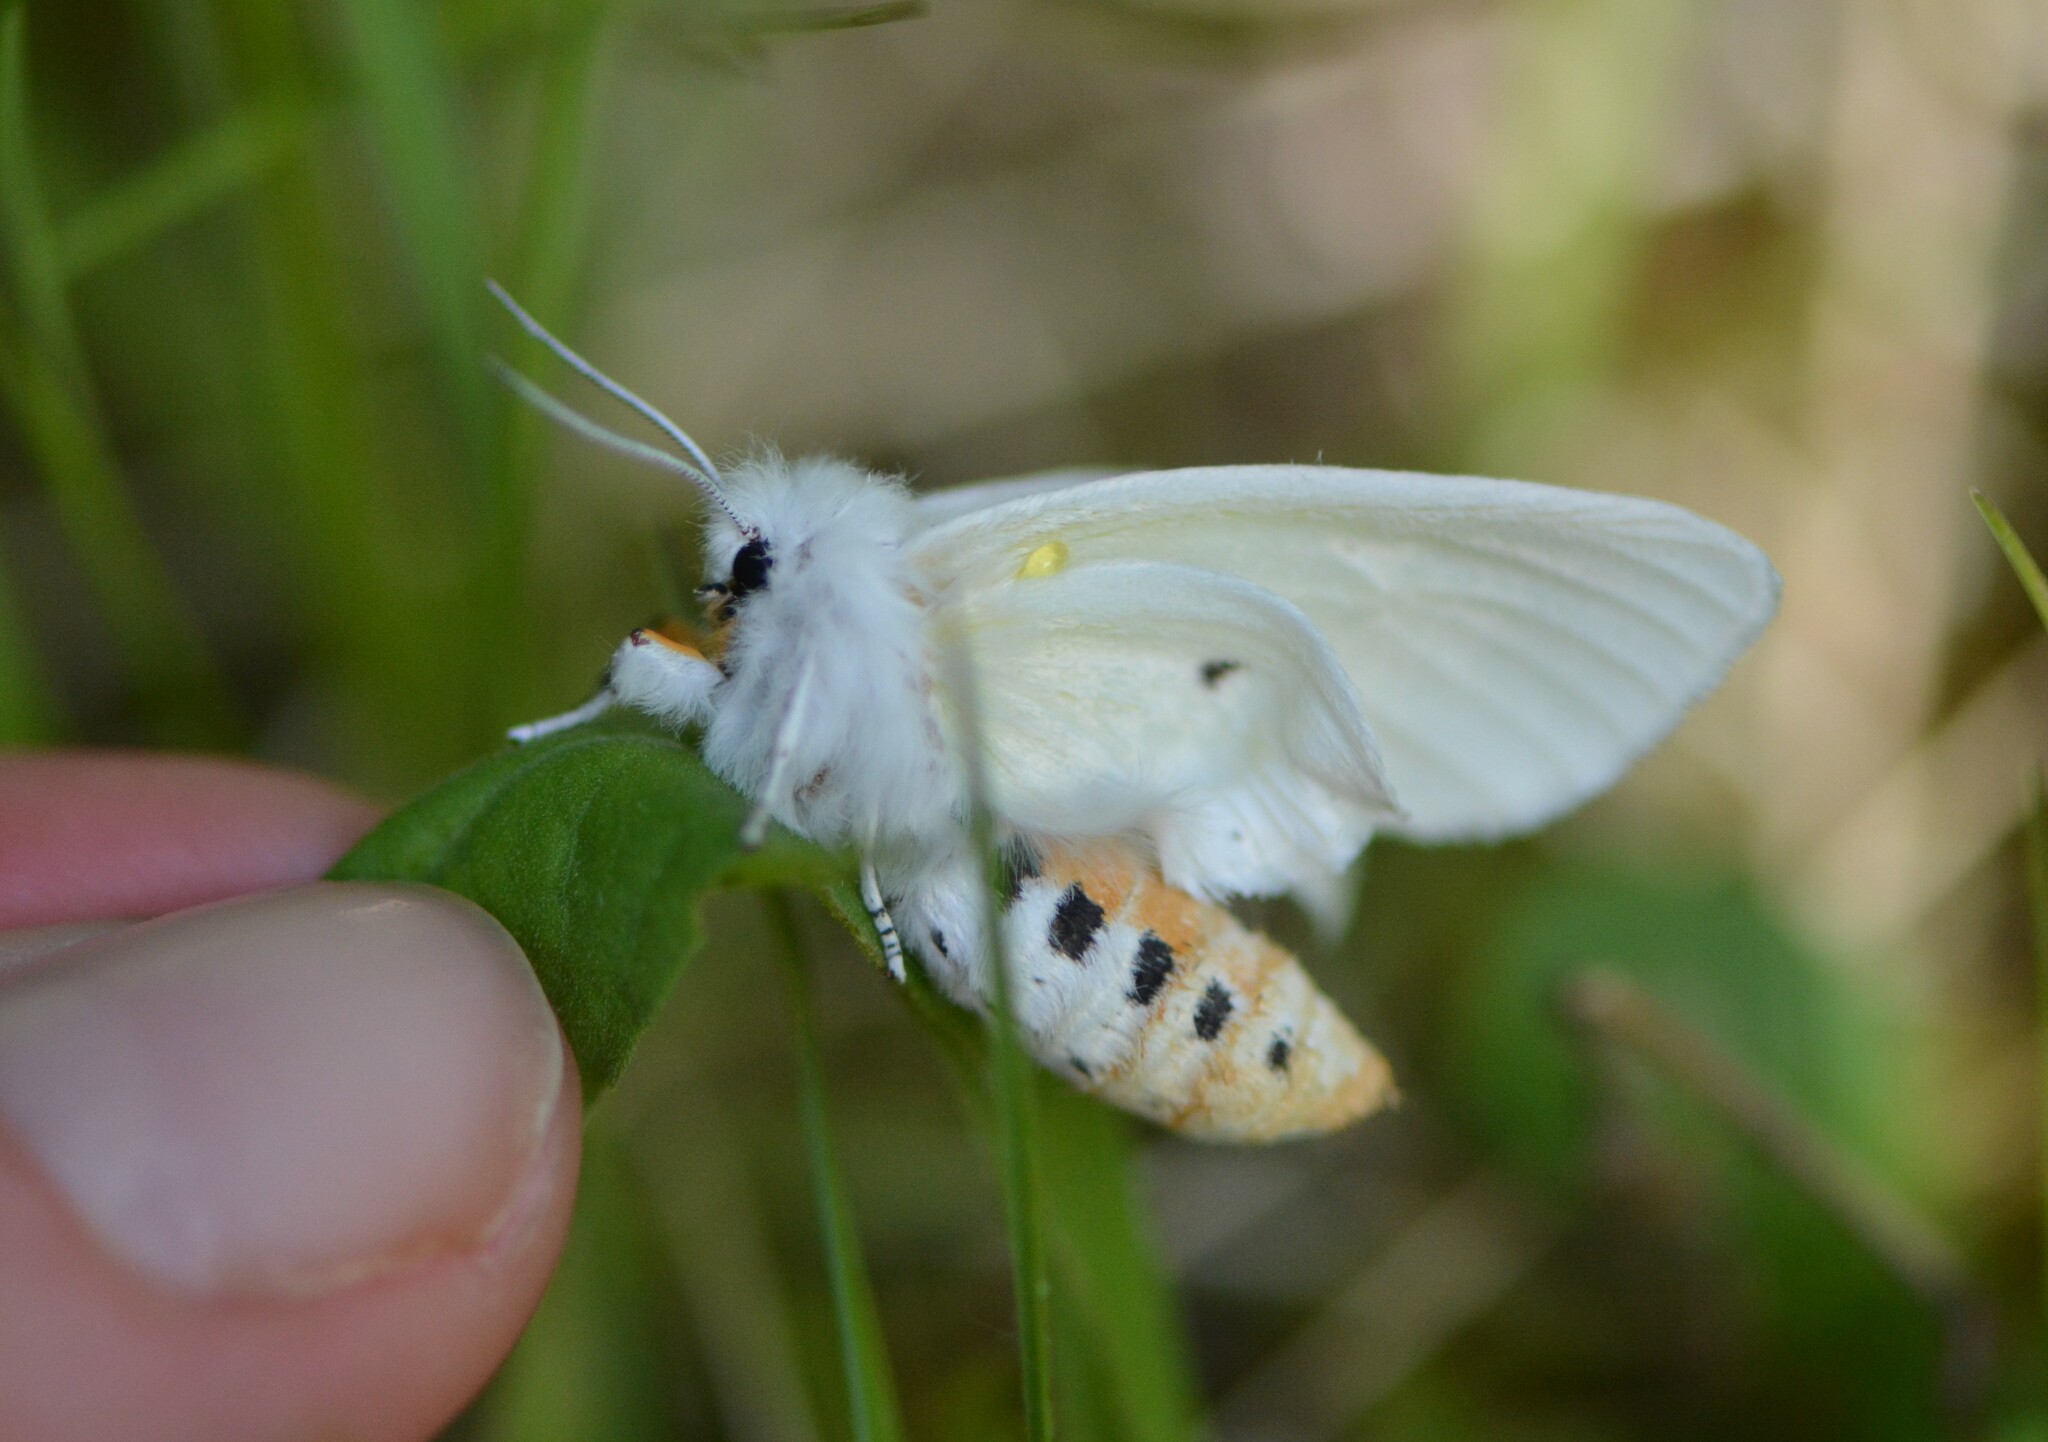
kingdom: Animalia
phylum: Arthropoda
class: Insecta
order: Lepidoptera
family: Erebidae
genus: Spilosoma
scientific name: Spilosoma virginica
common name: Virginia tiger moth
